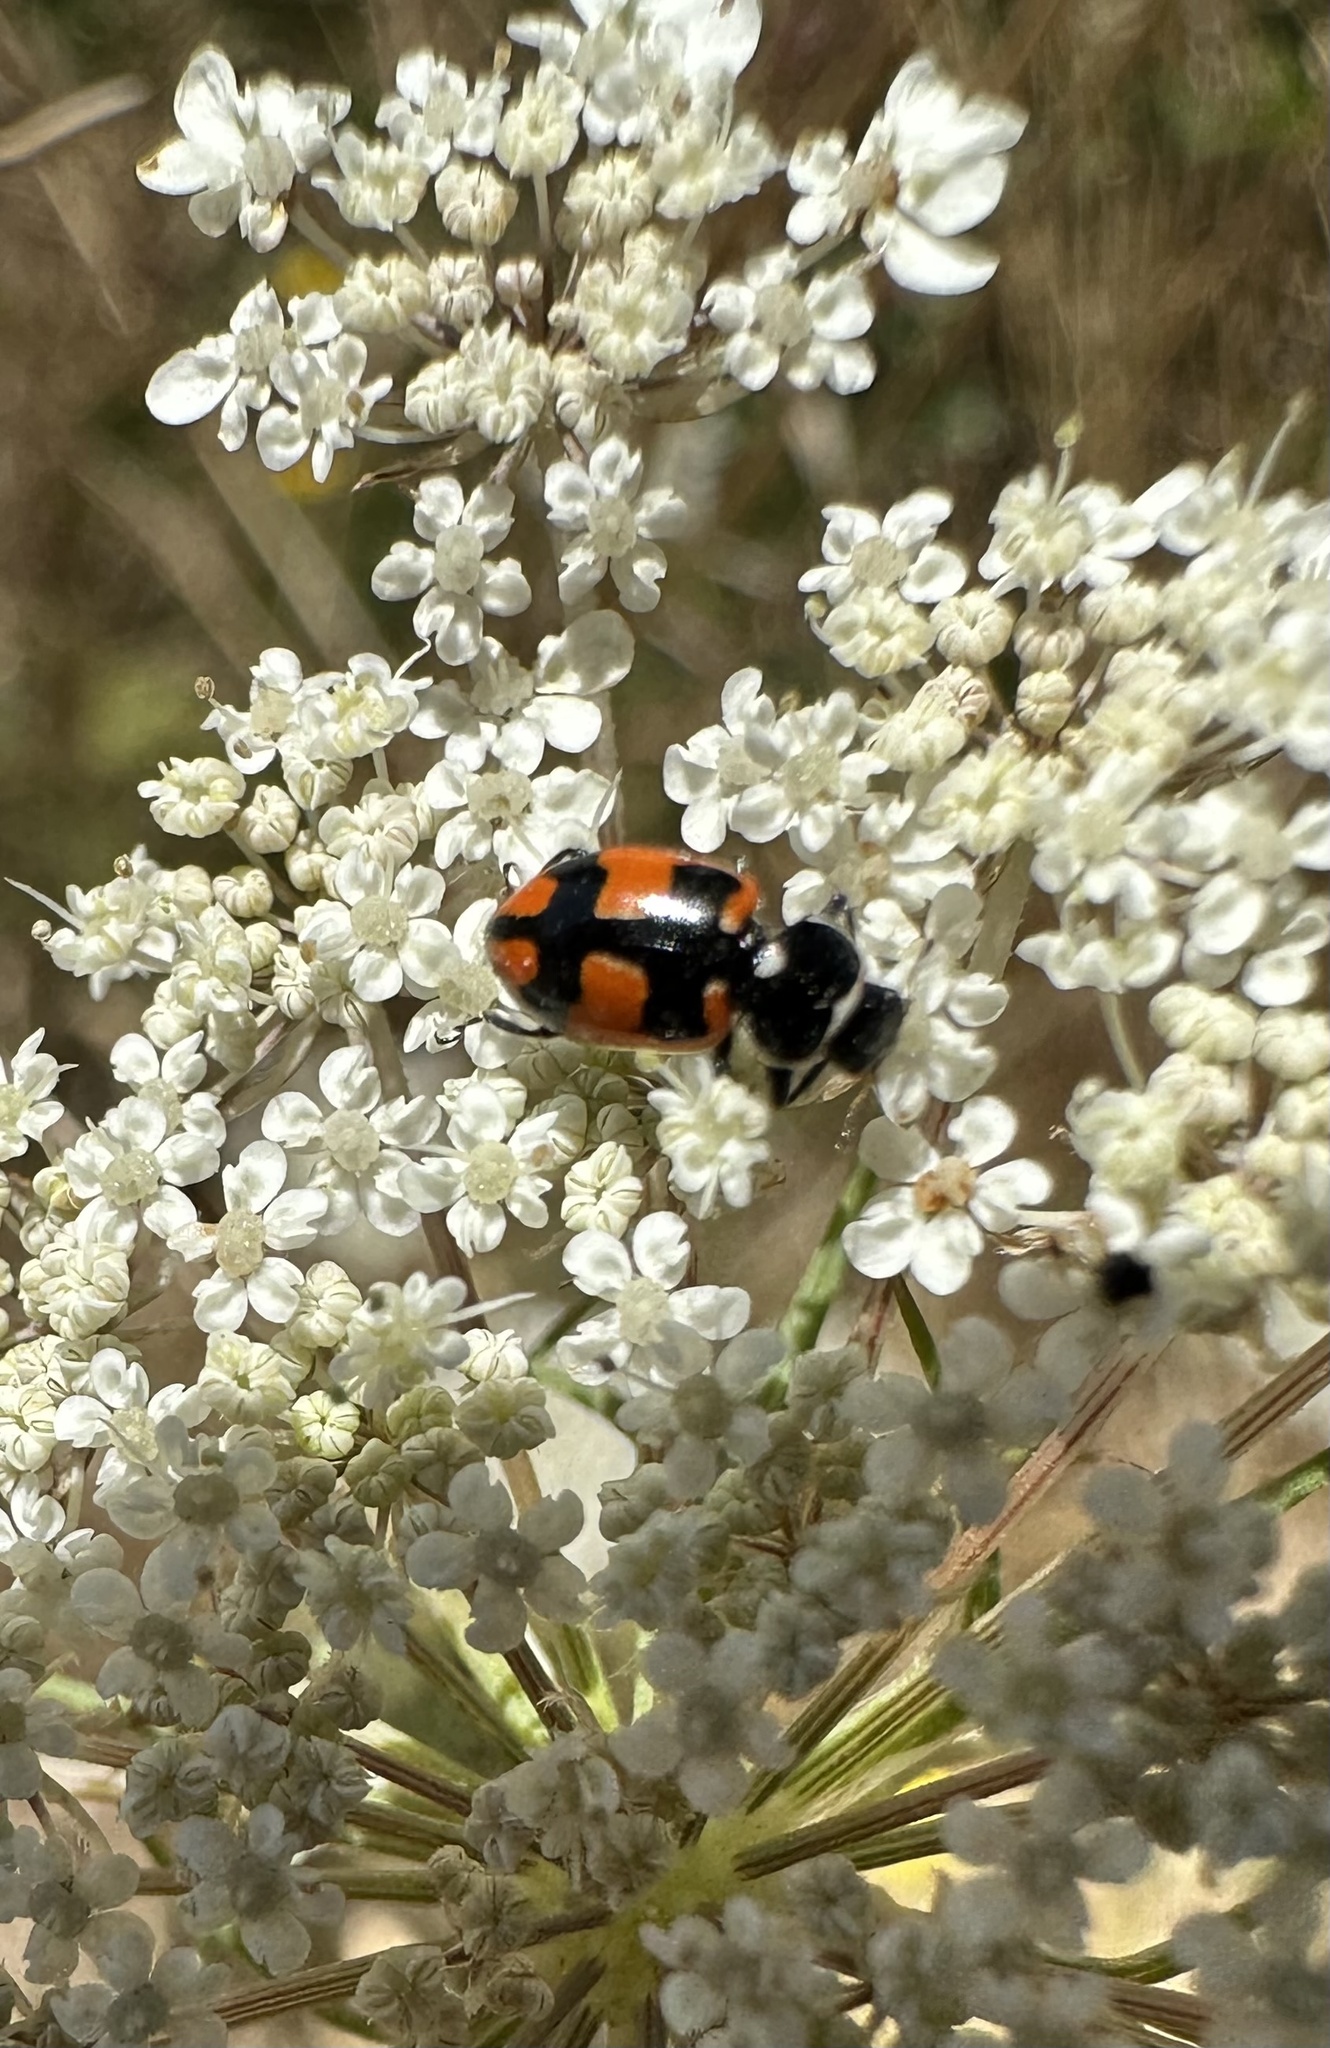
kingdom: Animalia
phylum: Arthropoda
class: Insecta
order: Coleoptera
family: Coccinellidae
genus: Eriopis
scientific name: Eriopis eschscholtzii
